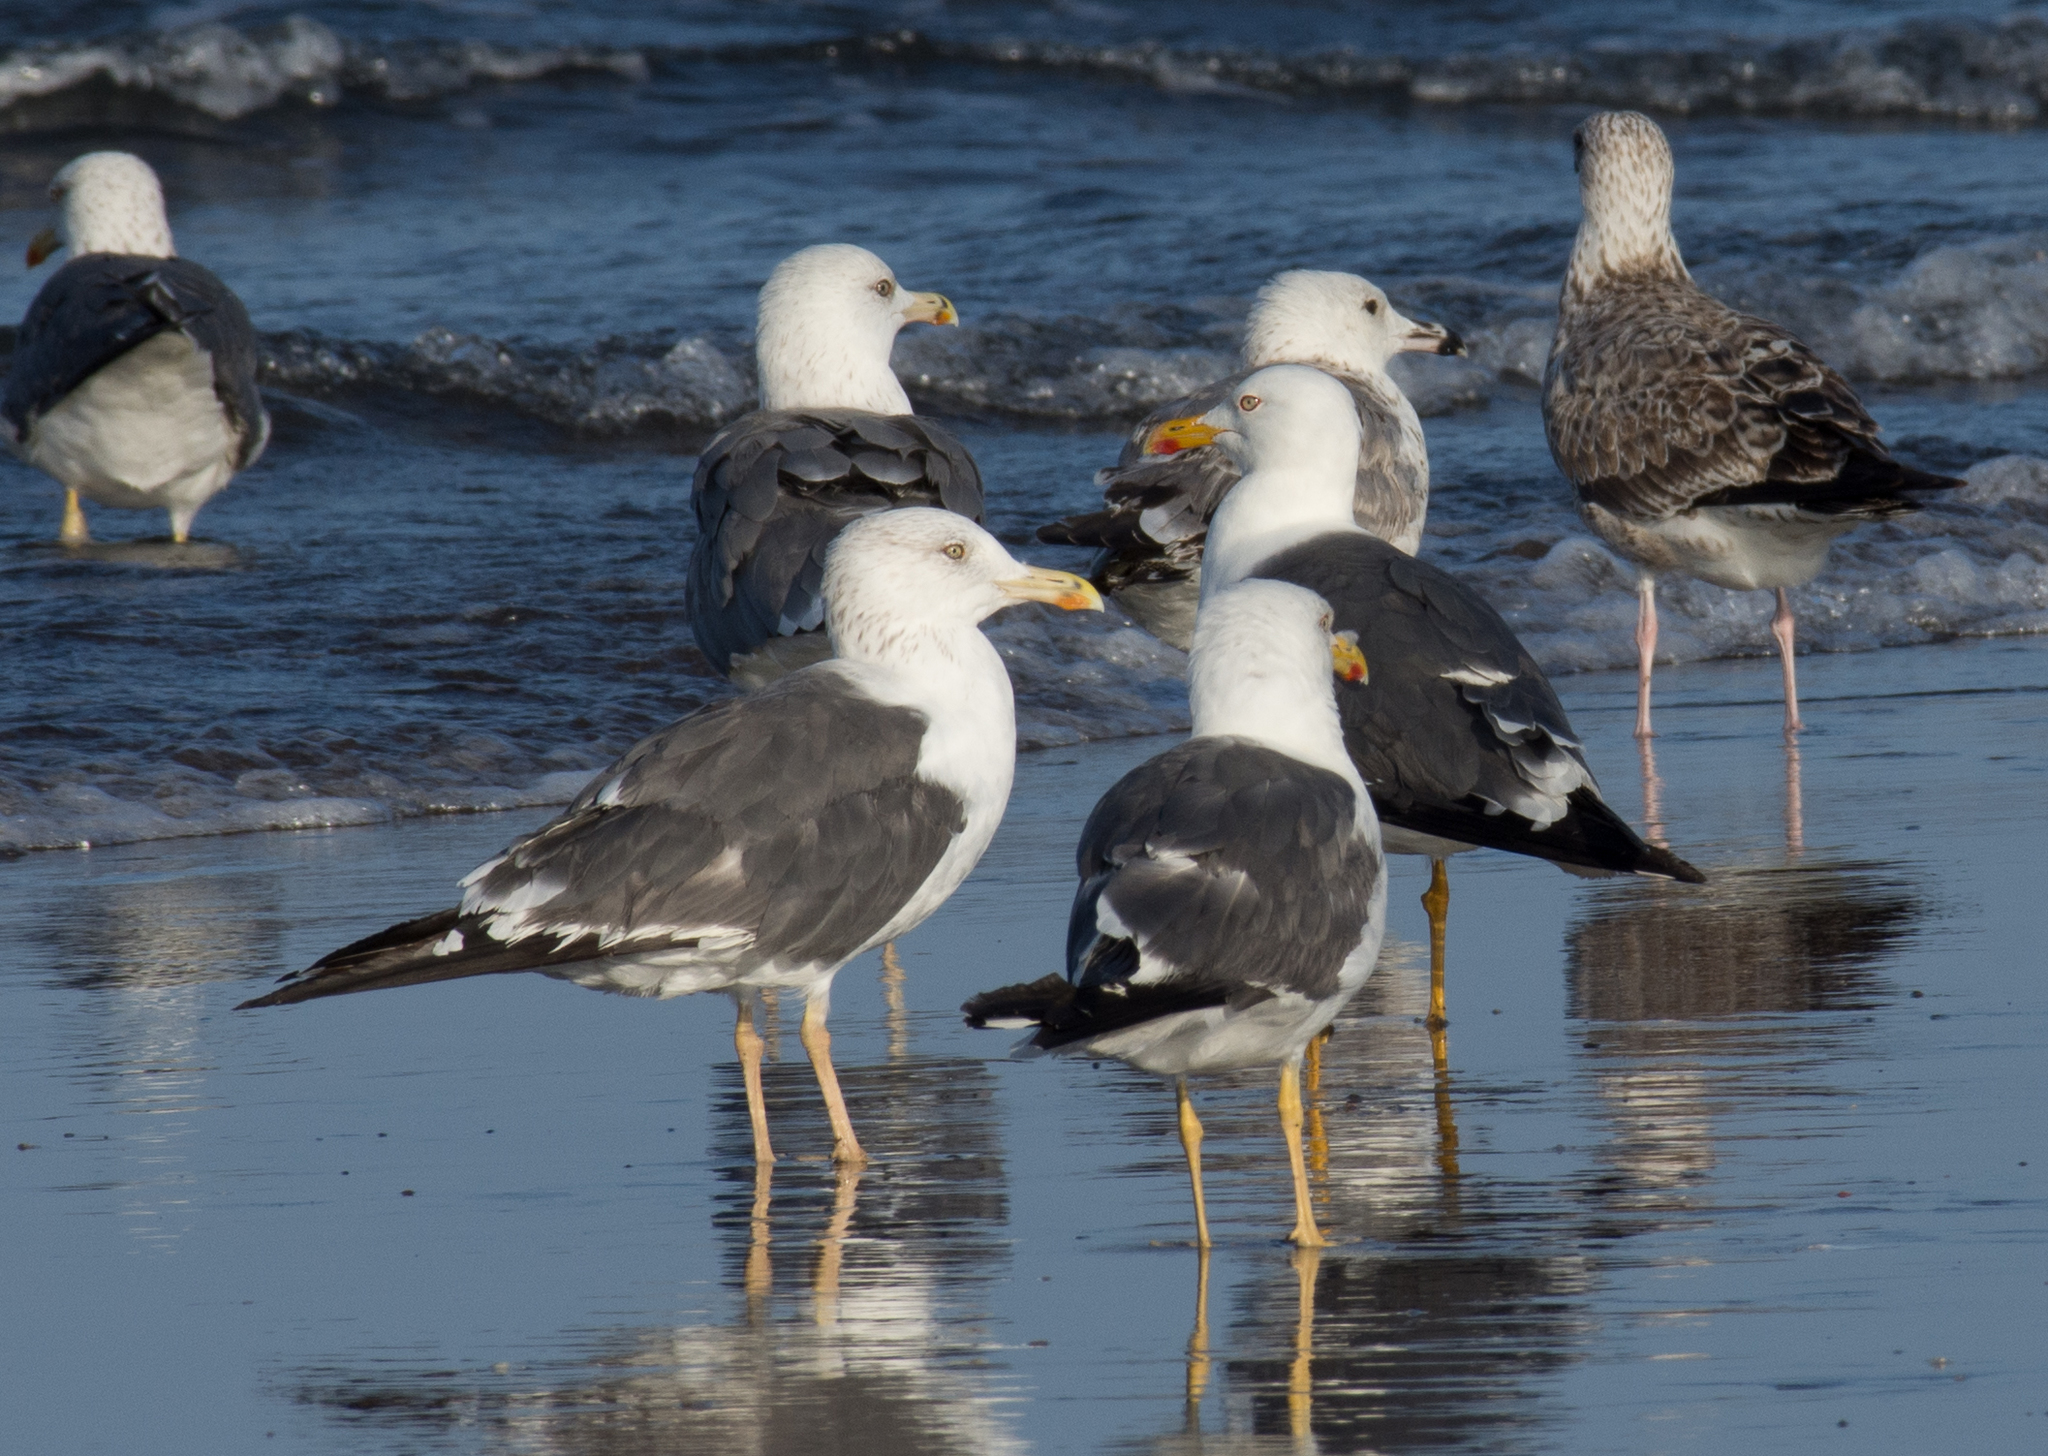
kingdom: Animalia
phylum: Chordata
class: Aves
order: Charadriiformes
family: Laridae
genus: Larus
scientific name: Larus fuscus
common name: Lesser black-backed gull
